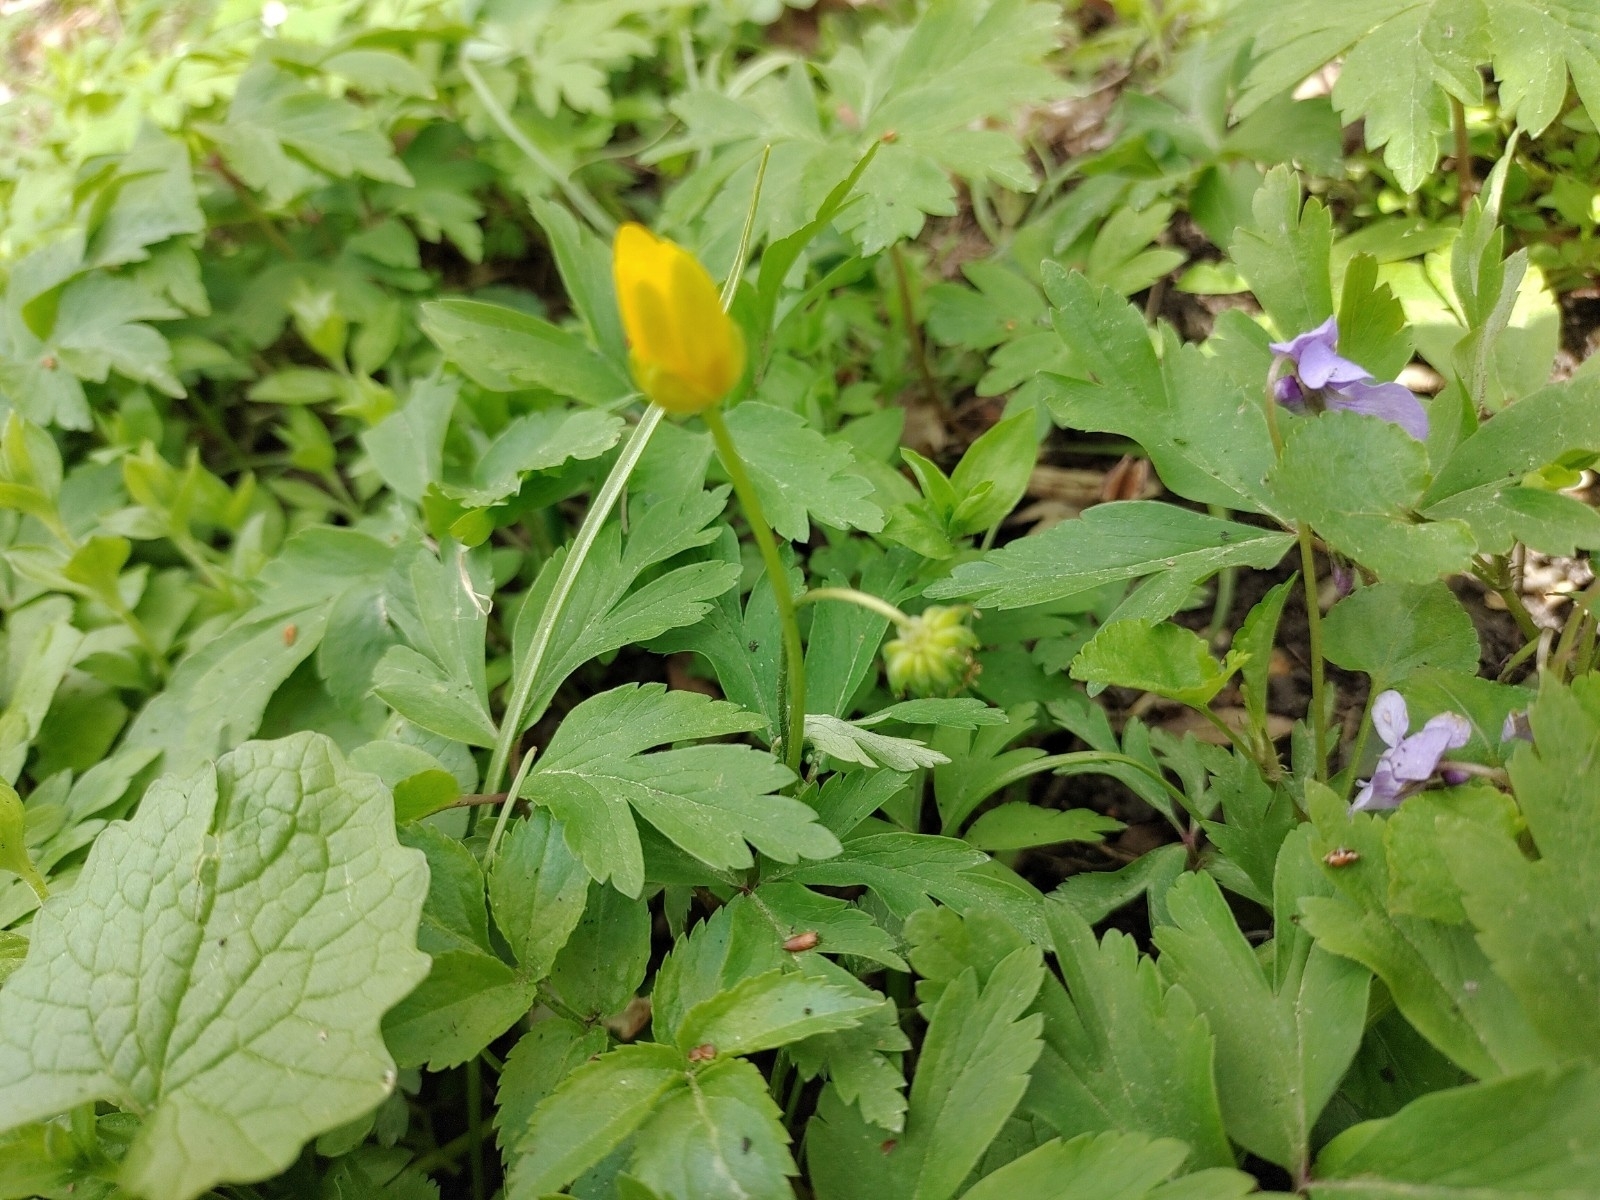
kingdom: Plantae
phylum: Tracheophyta
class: Magnoliopsida
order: Ranunculales
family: Ranunculaceae
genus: Anemone
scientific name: Anemone nemorosa
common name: Wood anemone
